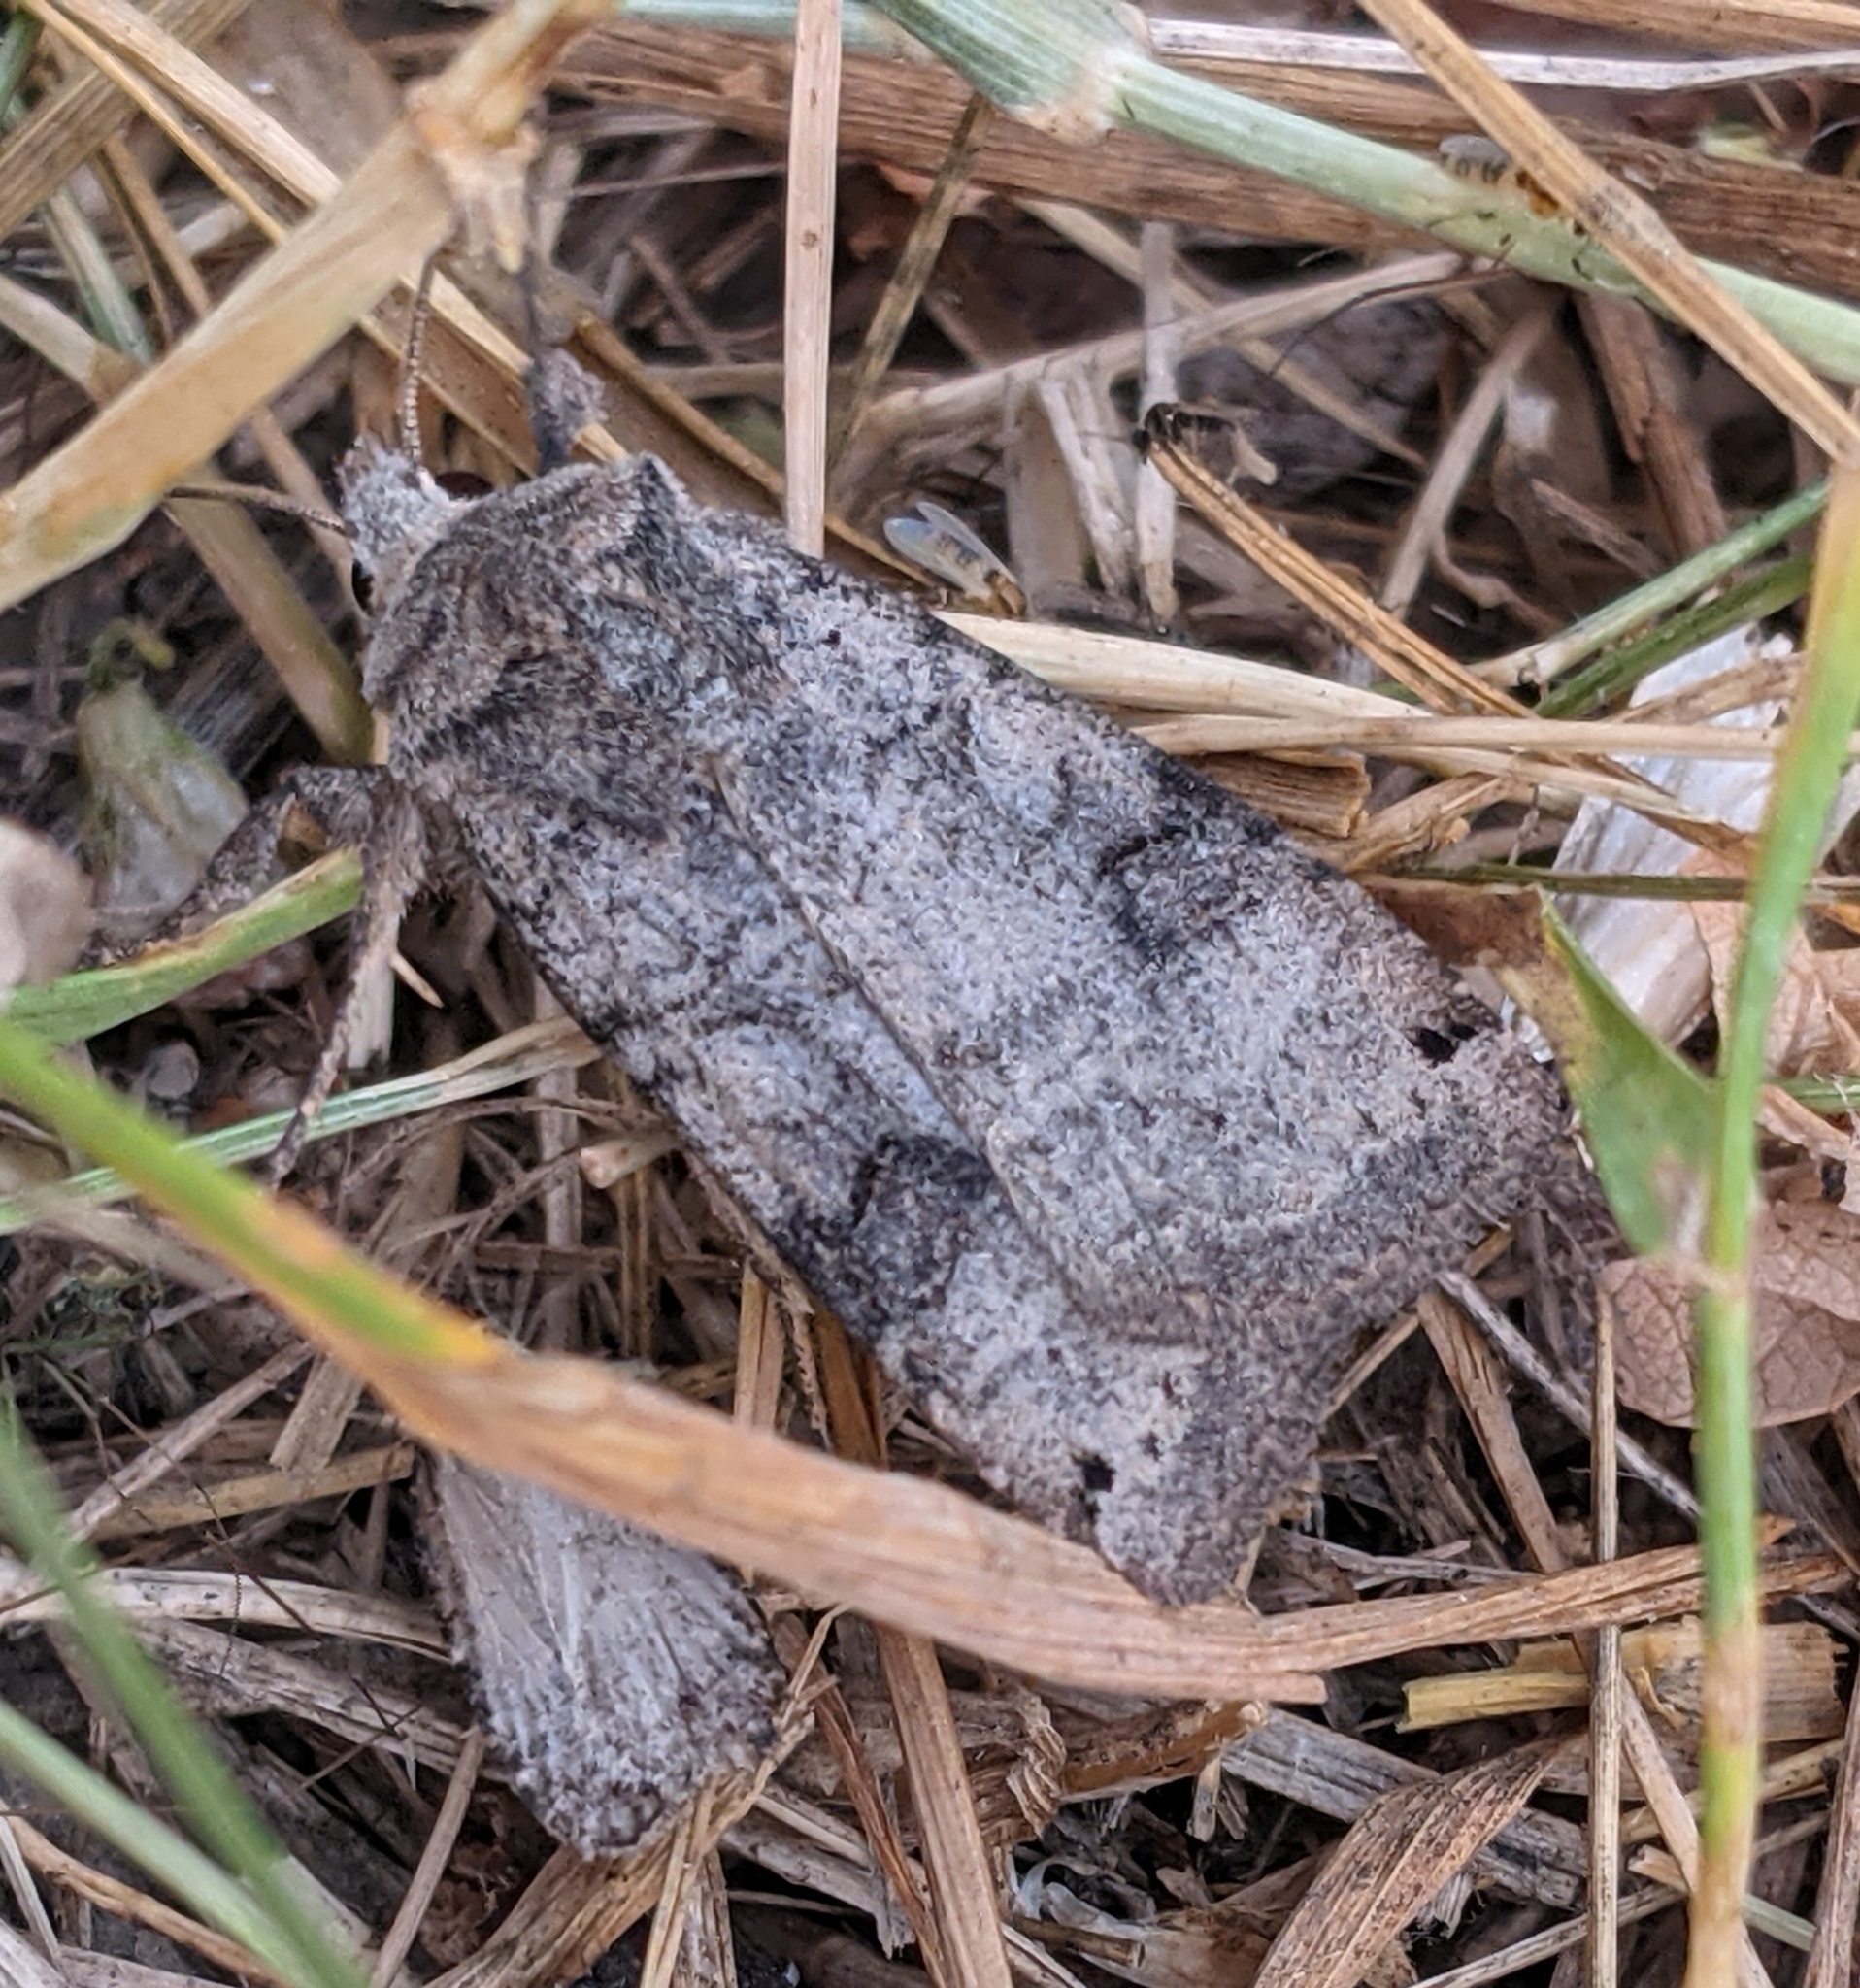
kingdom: Animalia
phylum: Arthropoda
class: Insecta
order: Lepidoptera
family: Noctuidae
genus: Xestia
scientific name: Xestia smithii
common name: Smith's dart
